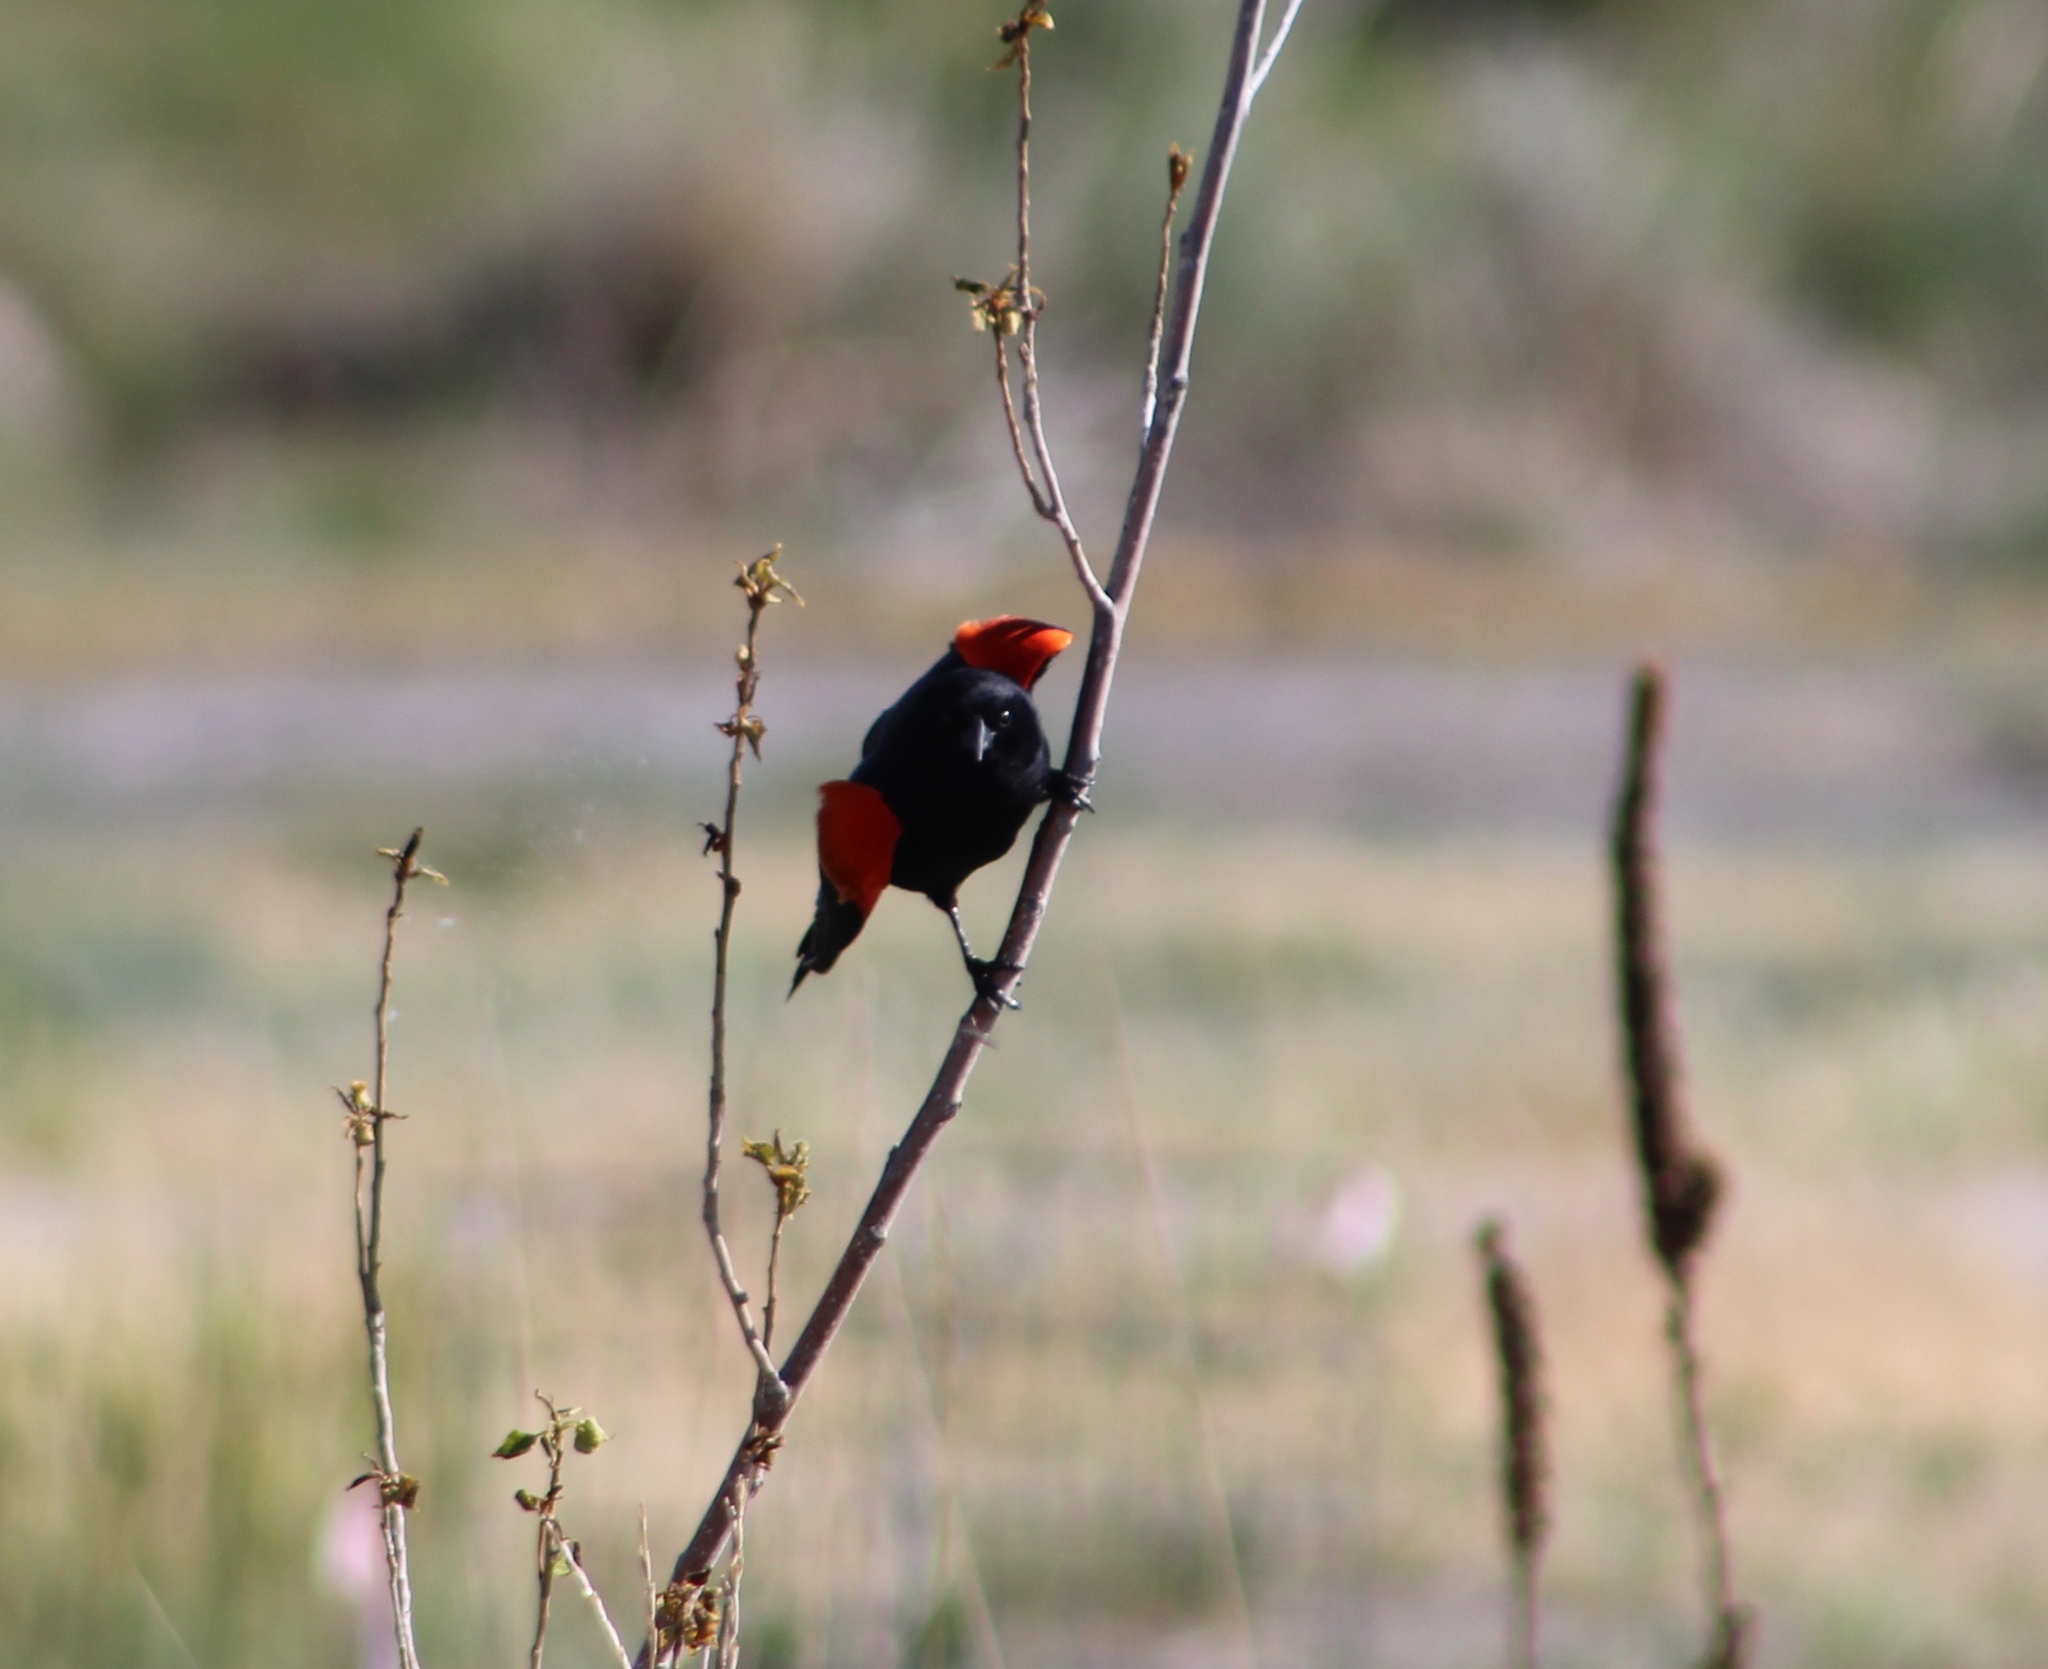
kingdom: Animalia
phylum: Chordata
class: Aves
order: Passeriformes
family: Icteridae
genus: Agelaius
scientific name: Agelaius phoeniceus
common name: Red-winged blackbird
